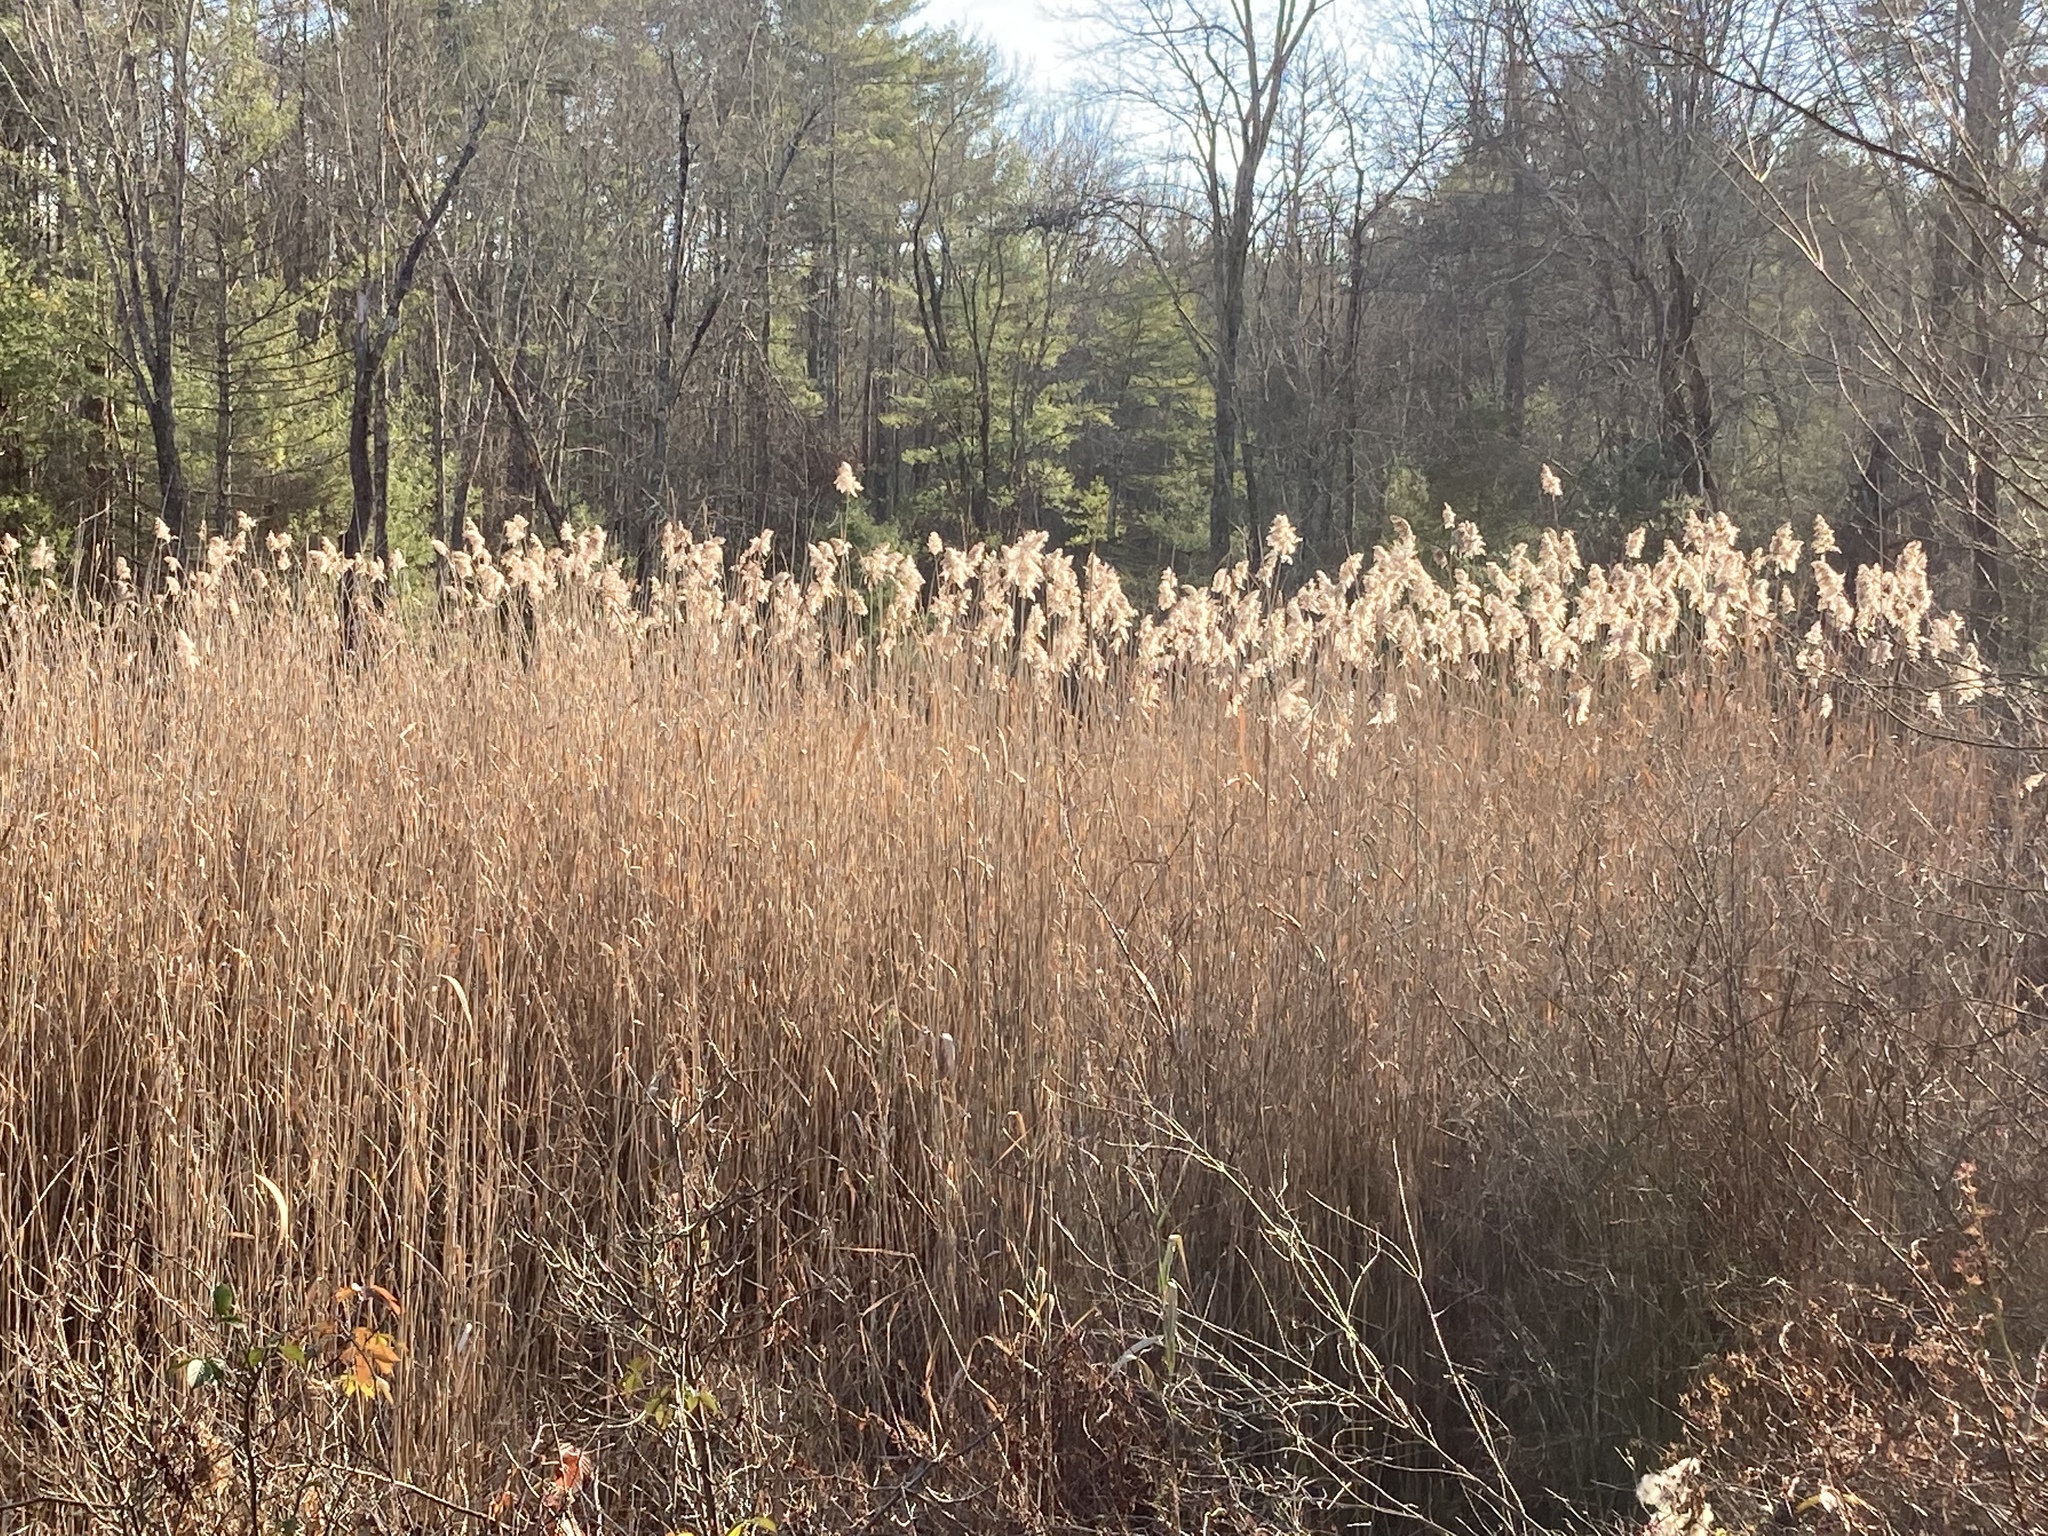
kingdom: Plantae
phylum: Tracheophyta
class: Liliopsida
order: Poales
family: Poaceae
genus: Phragmites
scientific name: Phragmites australis
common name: Common reed
